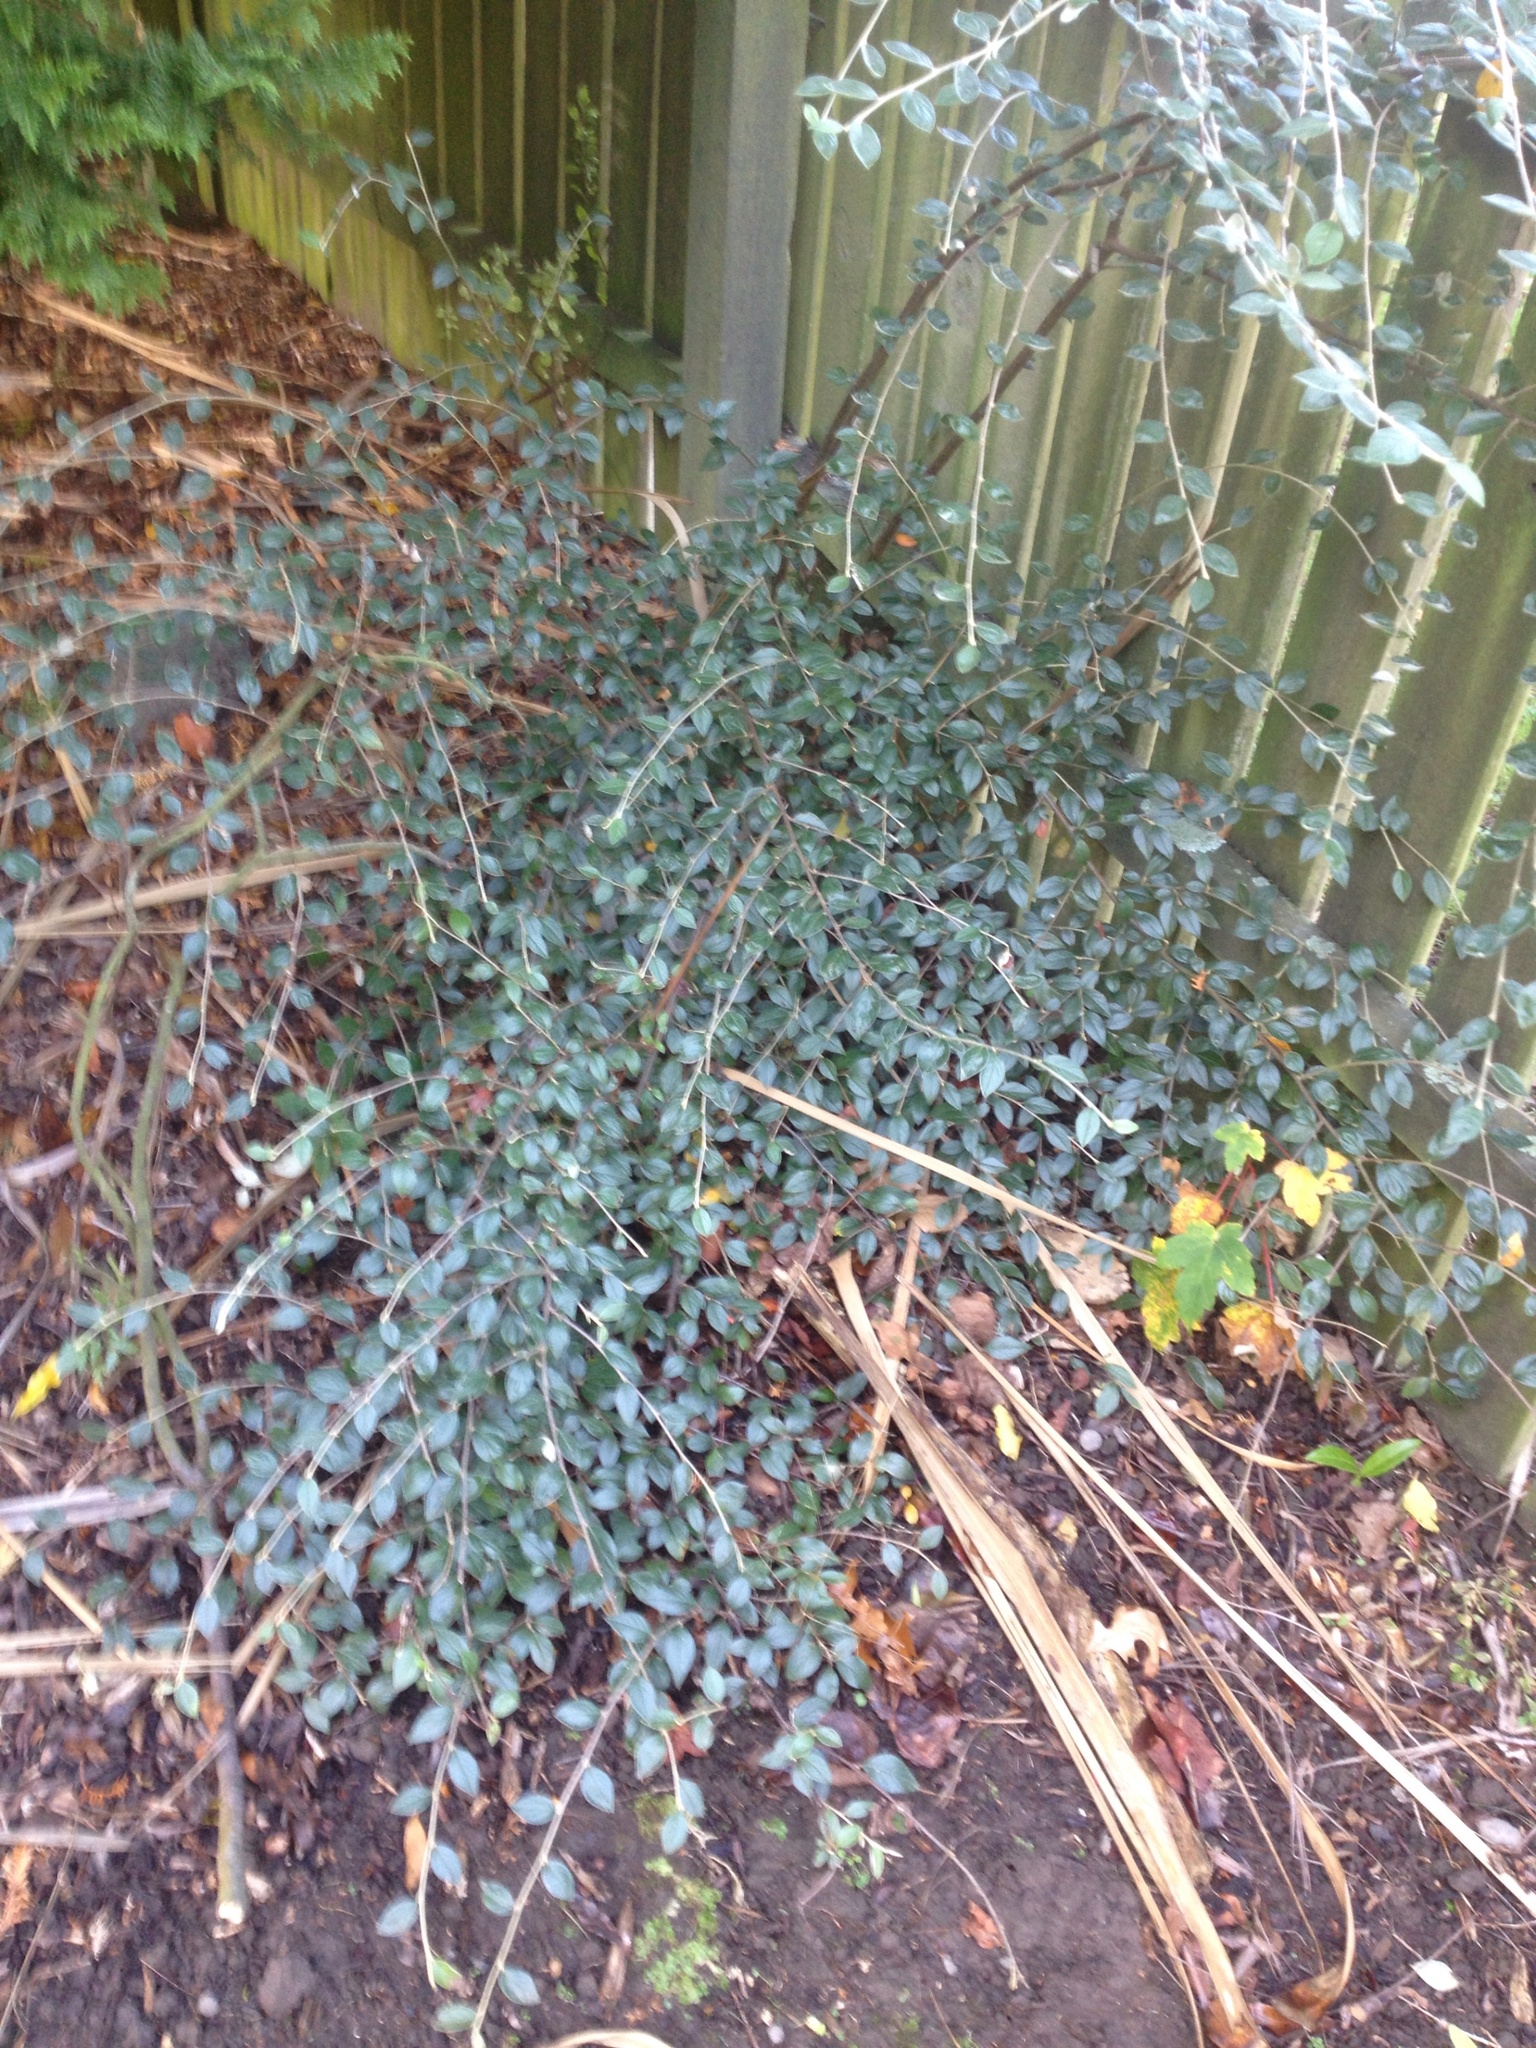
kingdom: Plantae
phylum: Tracheophyta
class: Magnoliopsida
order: Rosales
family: Rosaceae
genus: Cotoneaster
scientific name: Cotoneaster simonsii
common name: Himalayan cotoneaster
